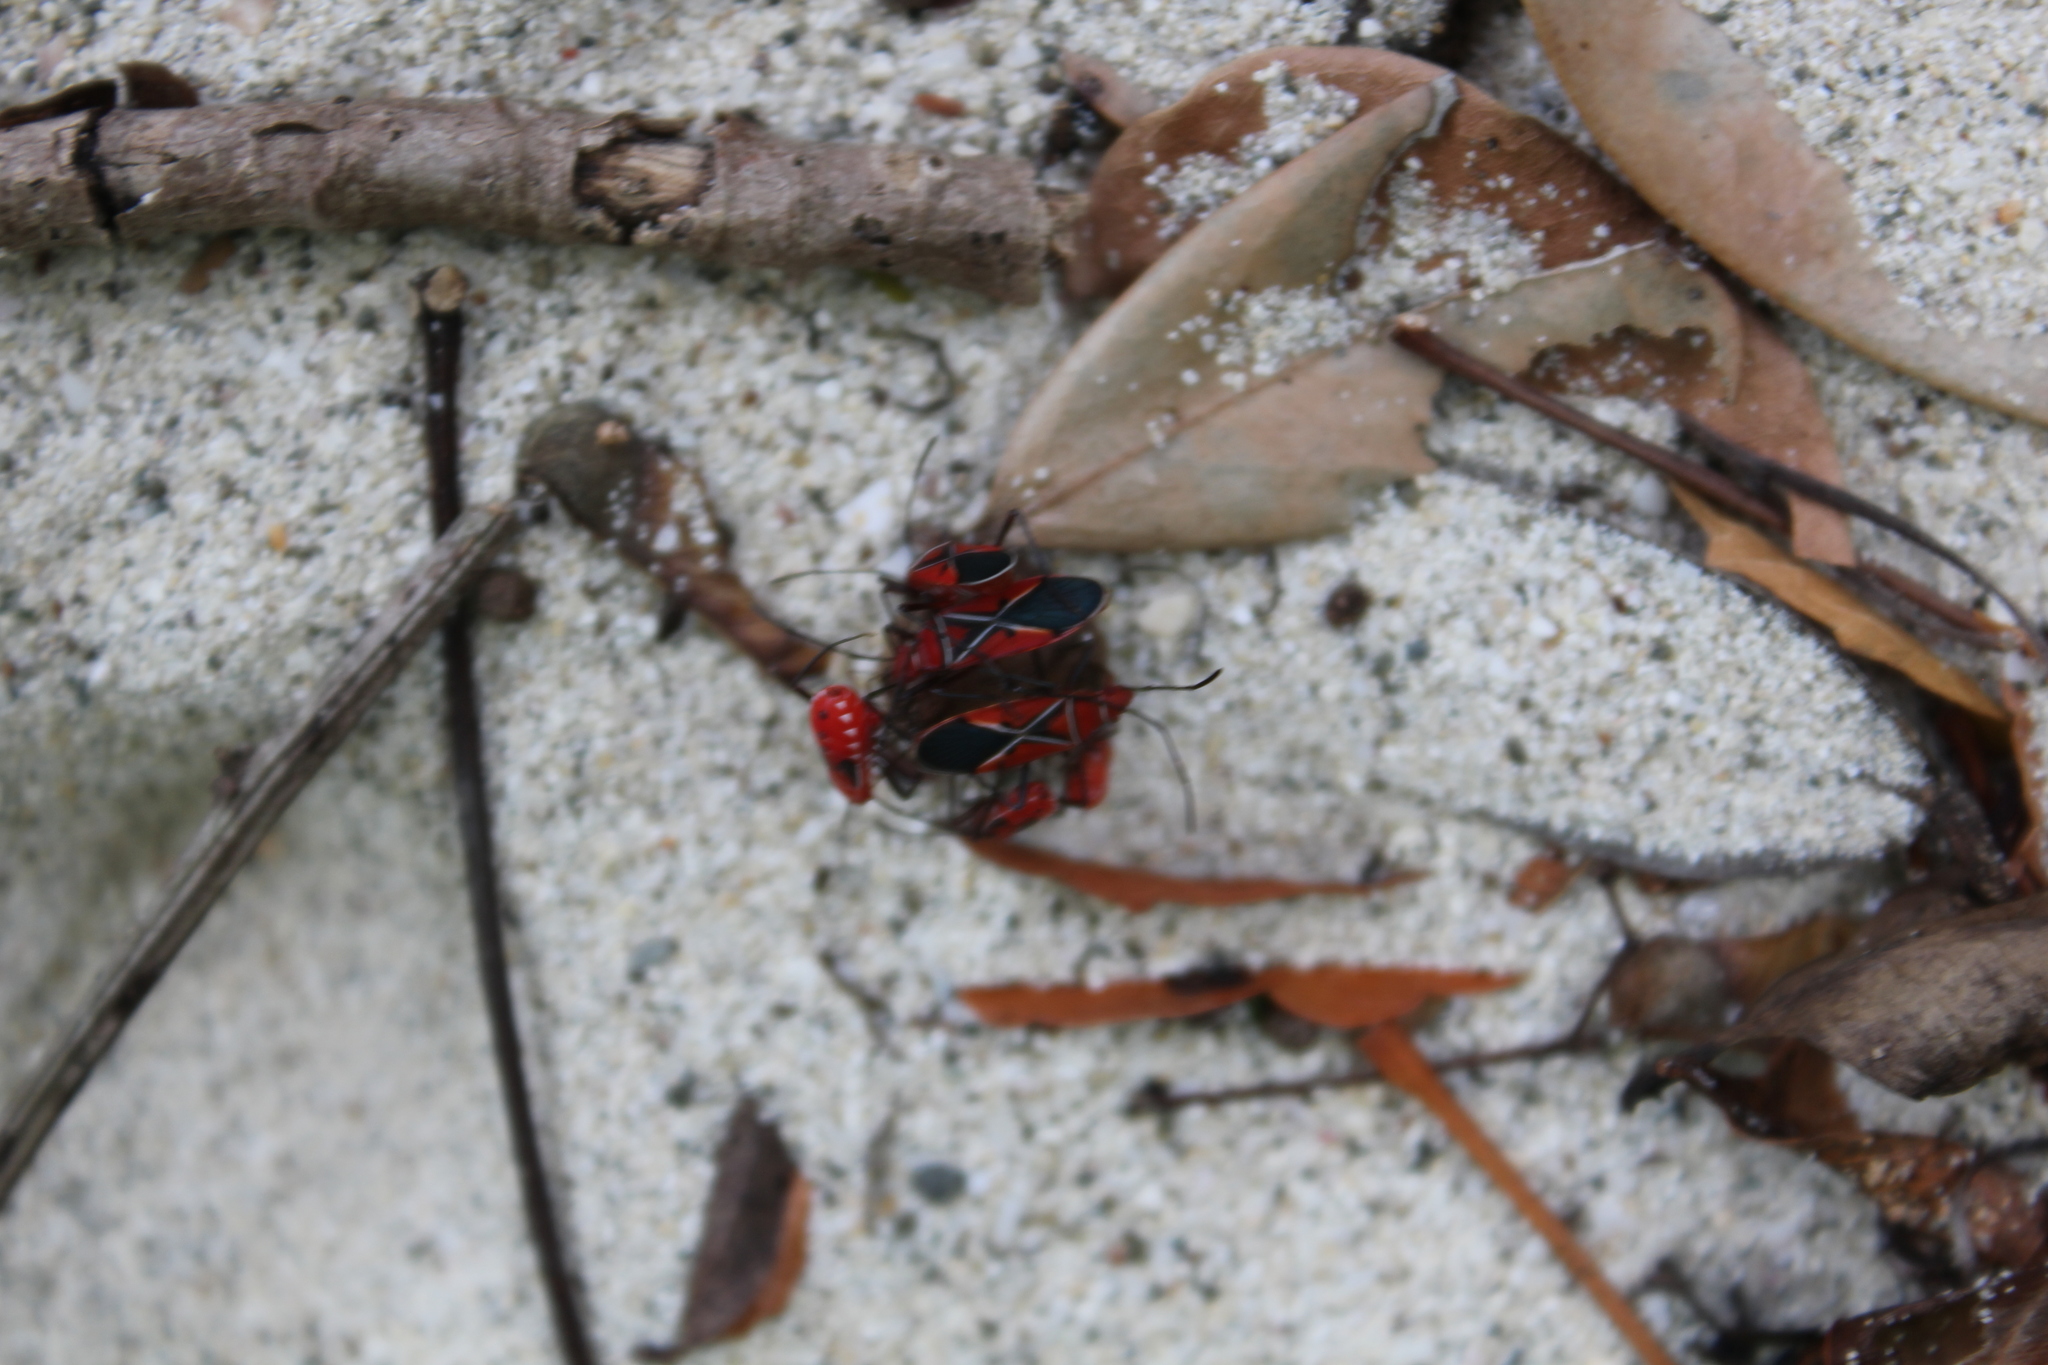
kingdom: Animalia
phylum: Arthropoda
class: Insecta
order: Hemiptera
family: Pyrrhocoridae
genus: Dysdercus
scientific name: Dysdercus andreae
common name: St. andrew's cotton stainer
